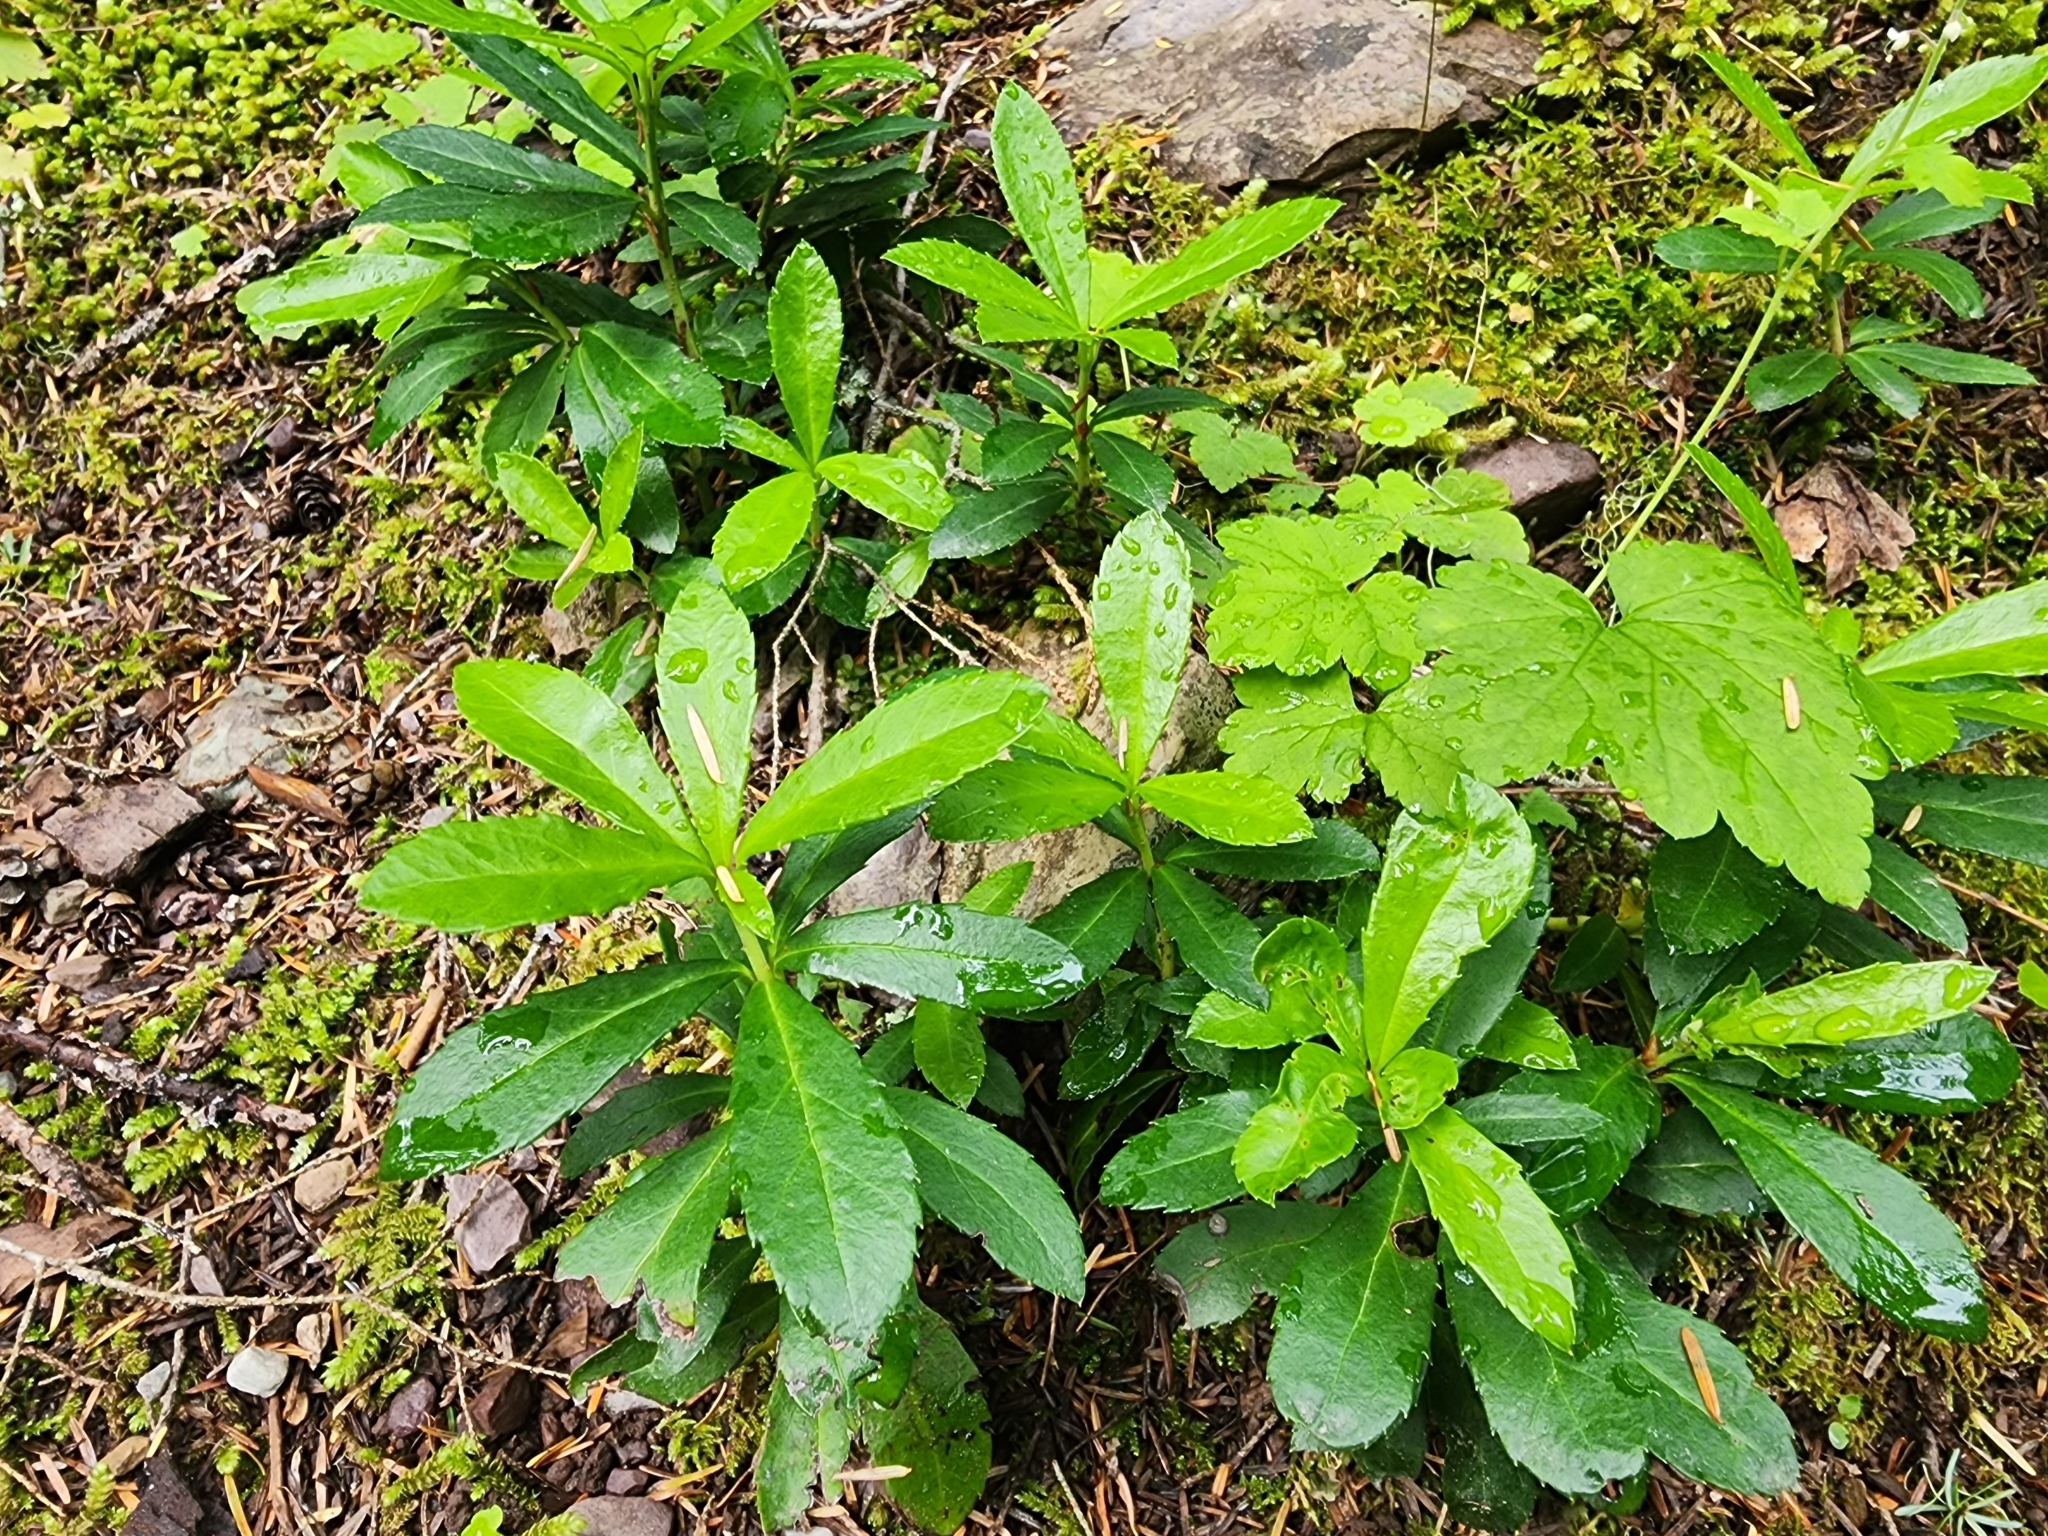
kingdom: Plantae
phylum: Tracheophyta
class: Magnoliopsida
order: Ericales
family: Ericaceae
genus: Chimaphila
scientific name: Chimaphila umbellata
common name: Pipsissewa
